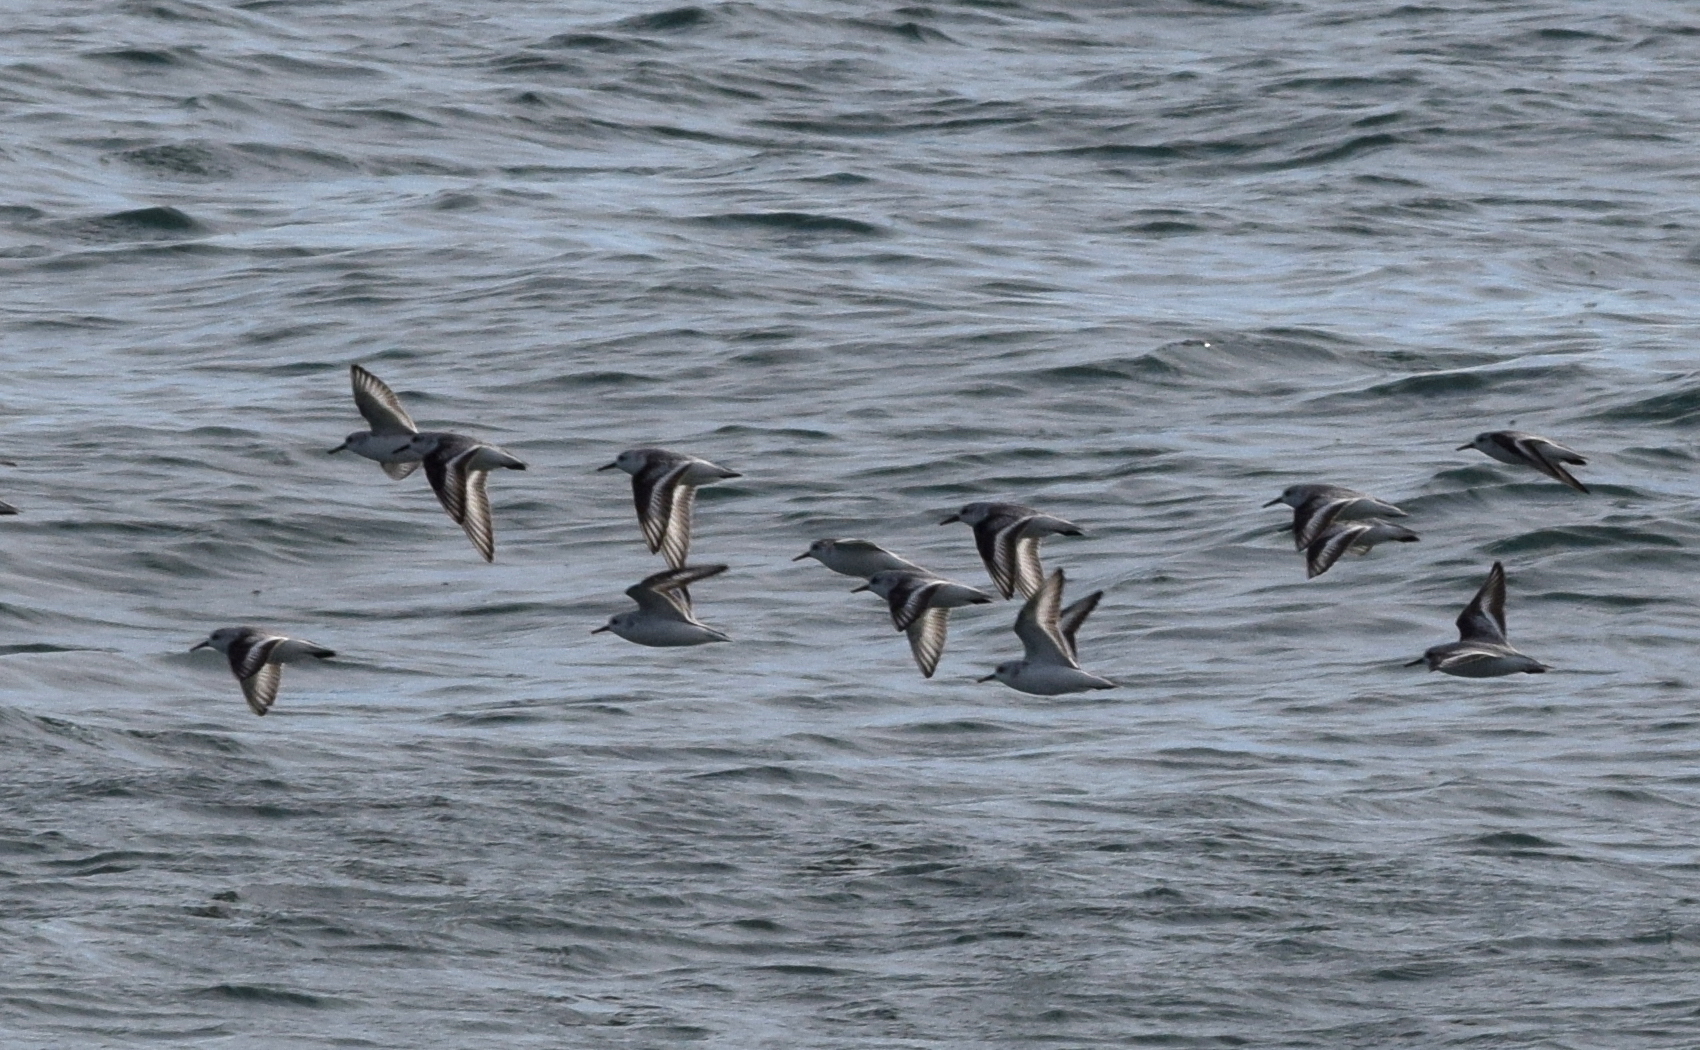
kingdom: Animalia
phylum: Chordata
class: Aves
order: Charadriiformes
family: Scolopacidae
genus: Calidris
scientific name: Calidris alba
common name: Sanderling
